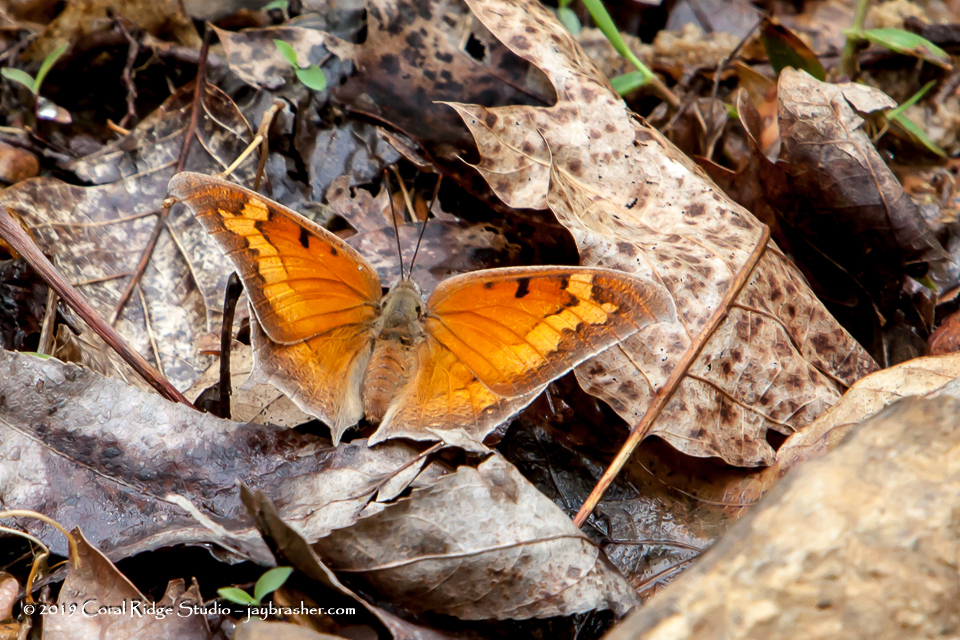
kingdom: Animalia
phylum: Arthropoda
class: Insecta
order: Lepidoptera
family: Nymphalidae
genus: Anaea
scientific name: Anaea andria
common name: Goatweed leafwing
